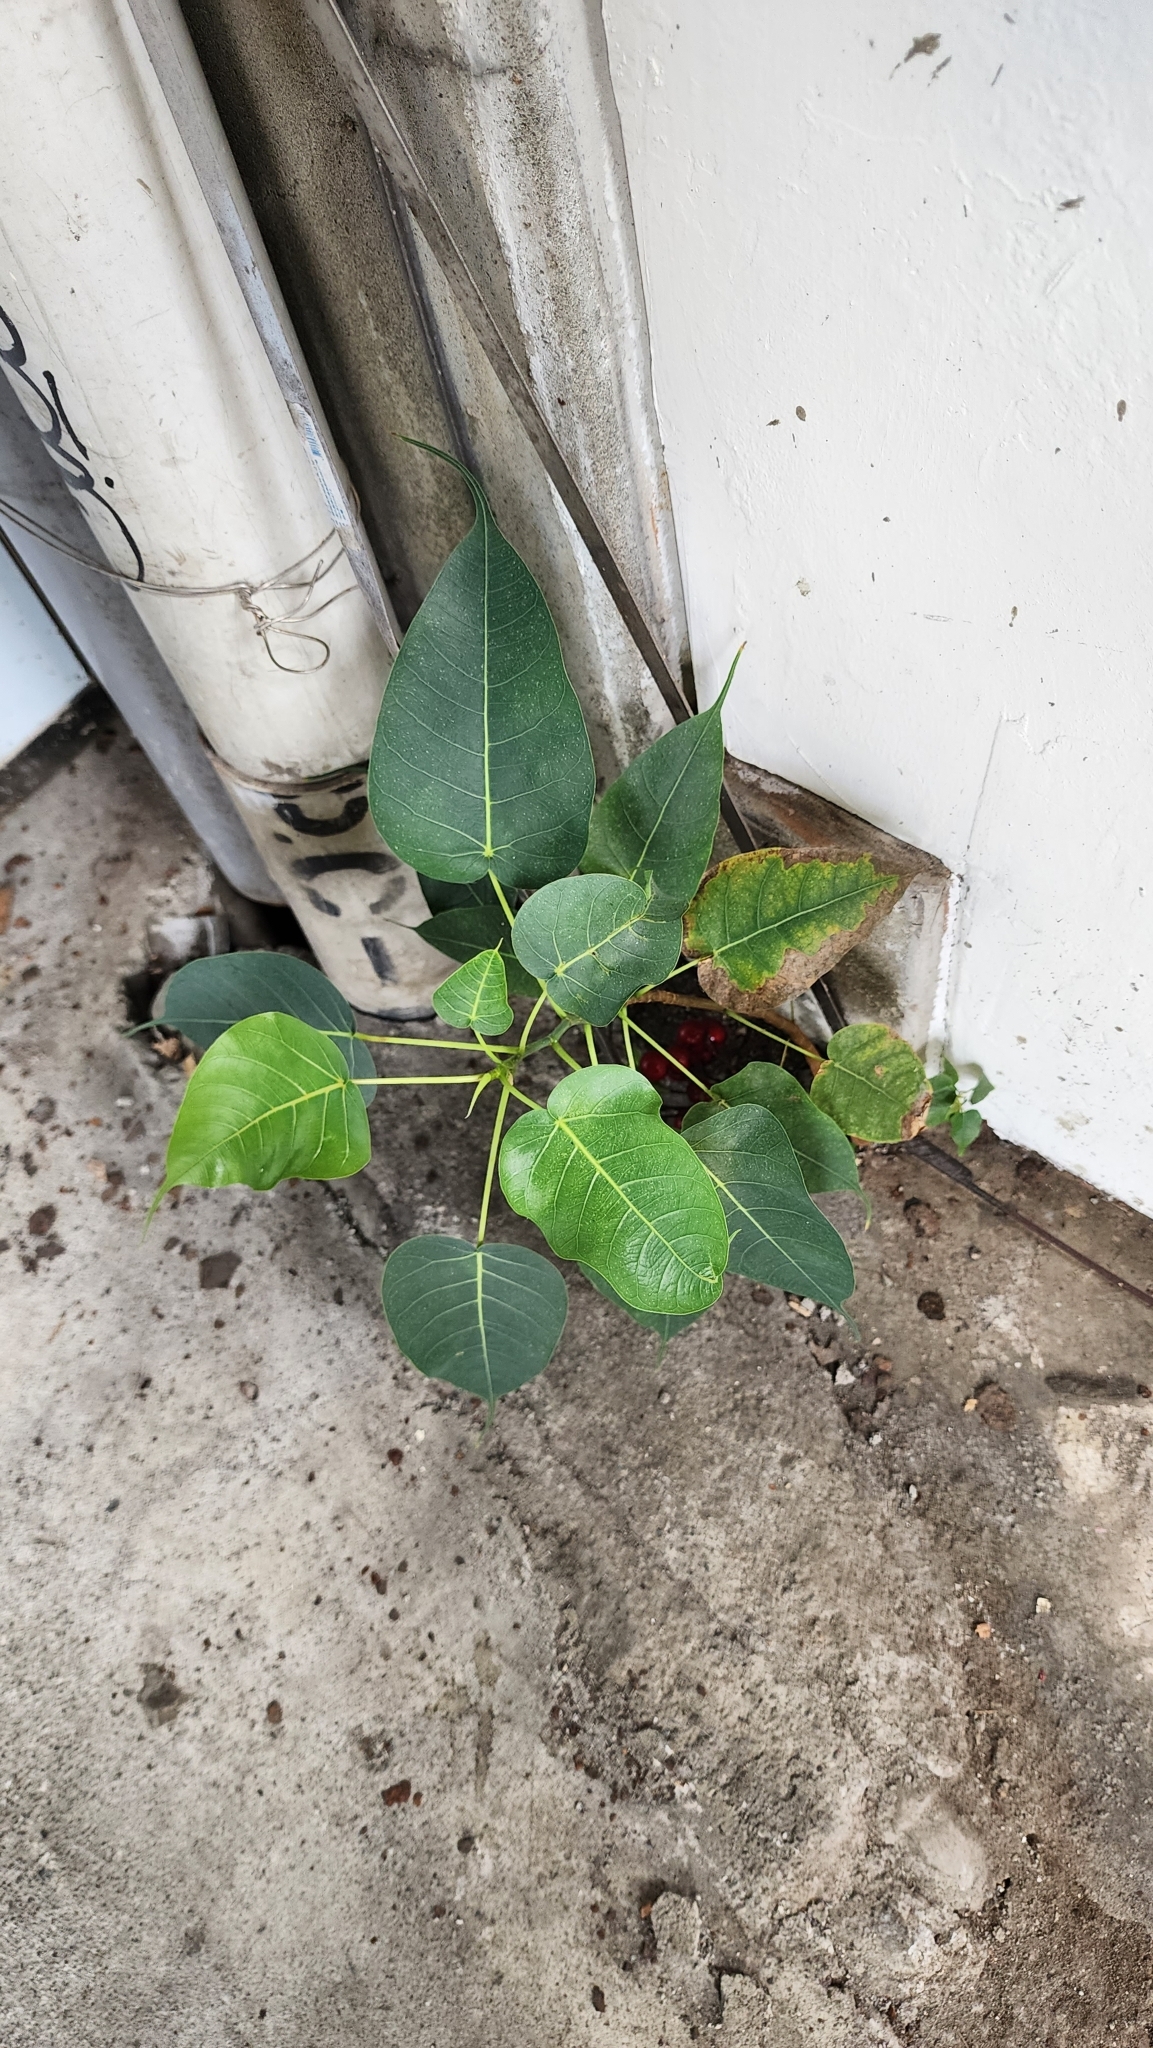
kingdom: Plantae
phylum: Tracheophyta
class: Magnoliopsida
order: Rosales
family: Moraceae
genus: Ficus
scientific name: Ficus religiosa
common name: Bodhi tree
